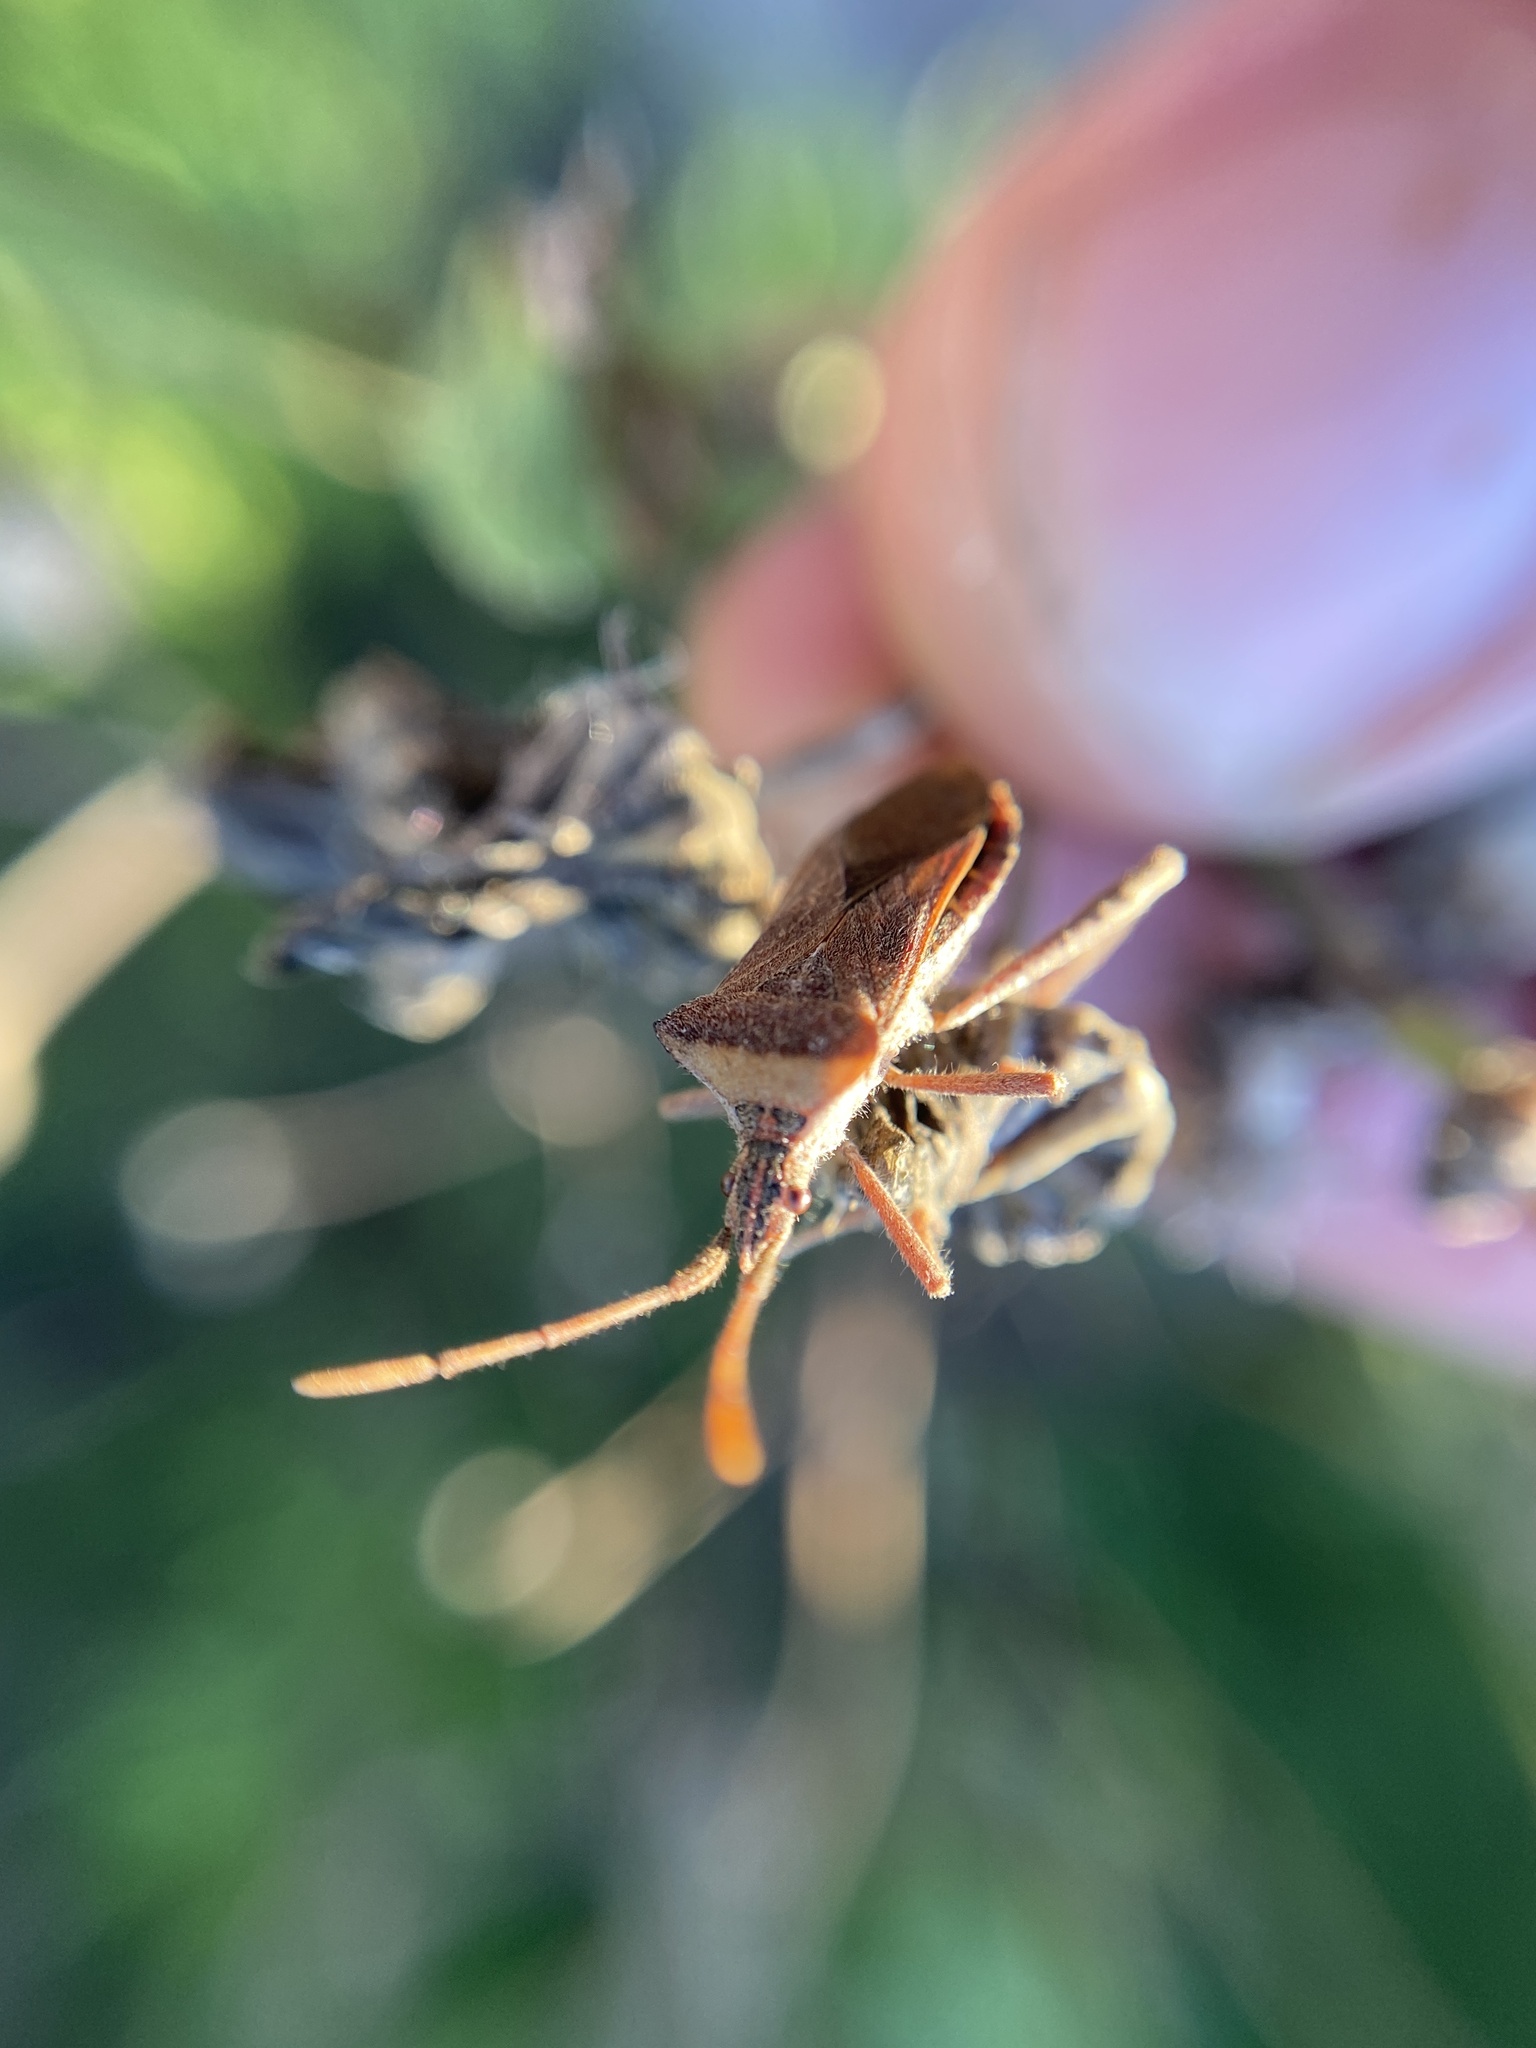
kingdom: Animalia
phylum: Arthropoda
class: Insecta
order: Hemiptera
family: Coreidae
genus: Leptoglossus
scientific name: Leptoglossus concaviusculus
